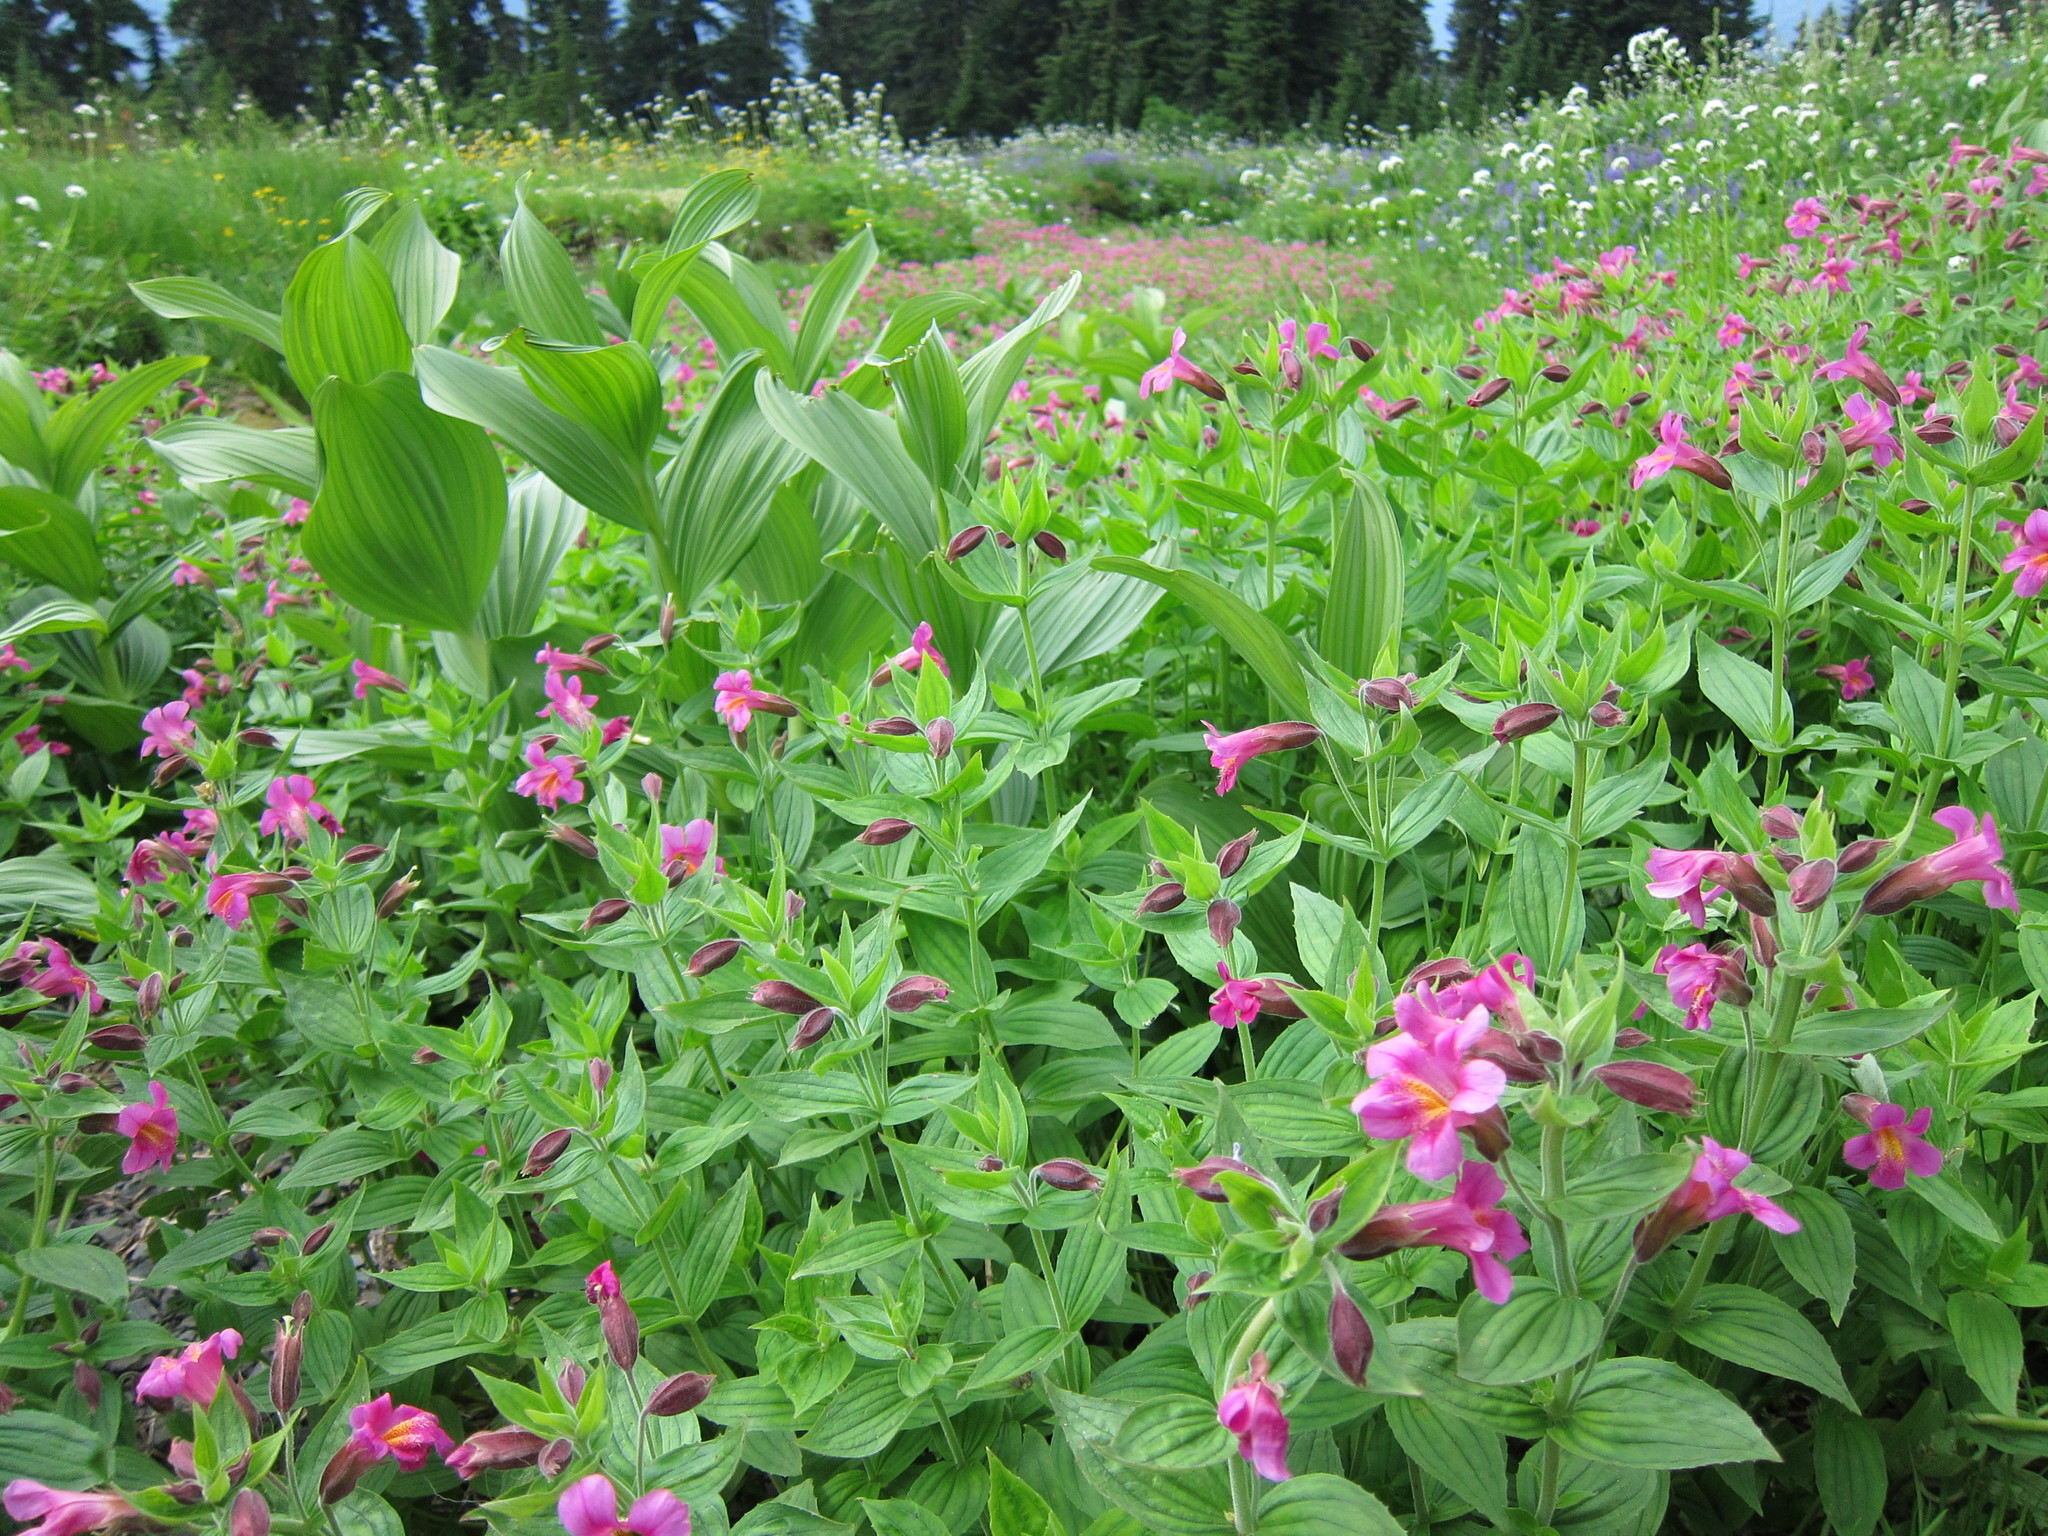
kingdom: Plantae
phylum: Tracheophyta
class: Magnoliopsida
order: Lamiales
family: Phrymaceae
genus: Erythranthe
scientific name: Erythranthe lewisii
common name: Lewis's monkey-flower
